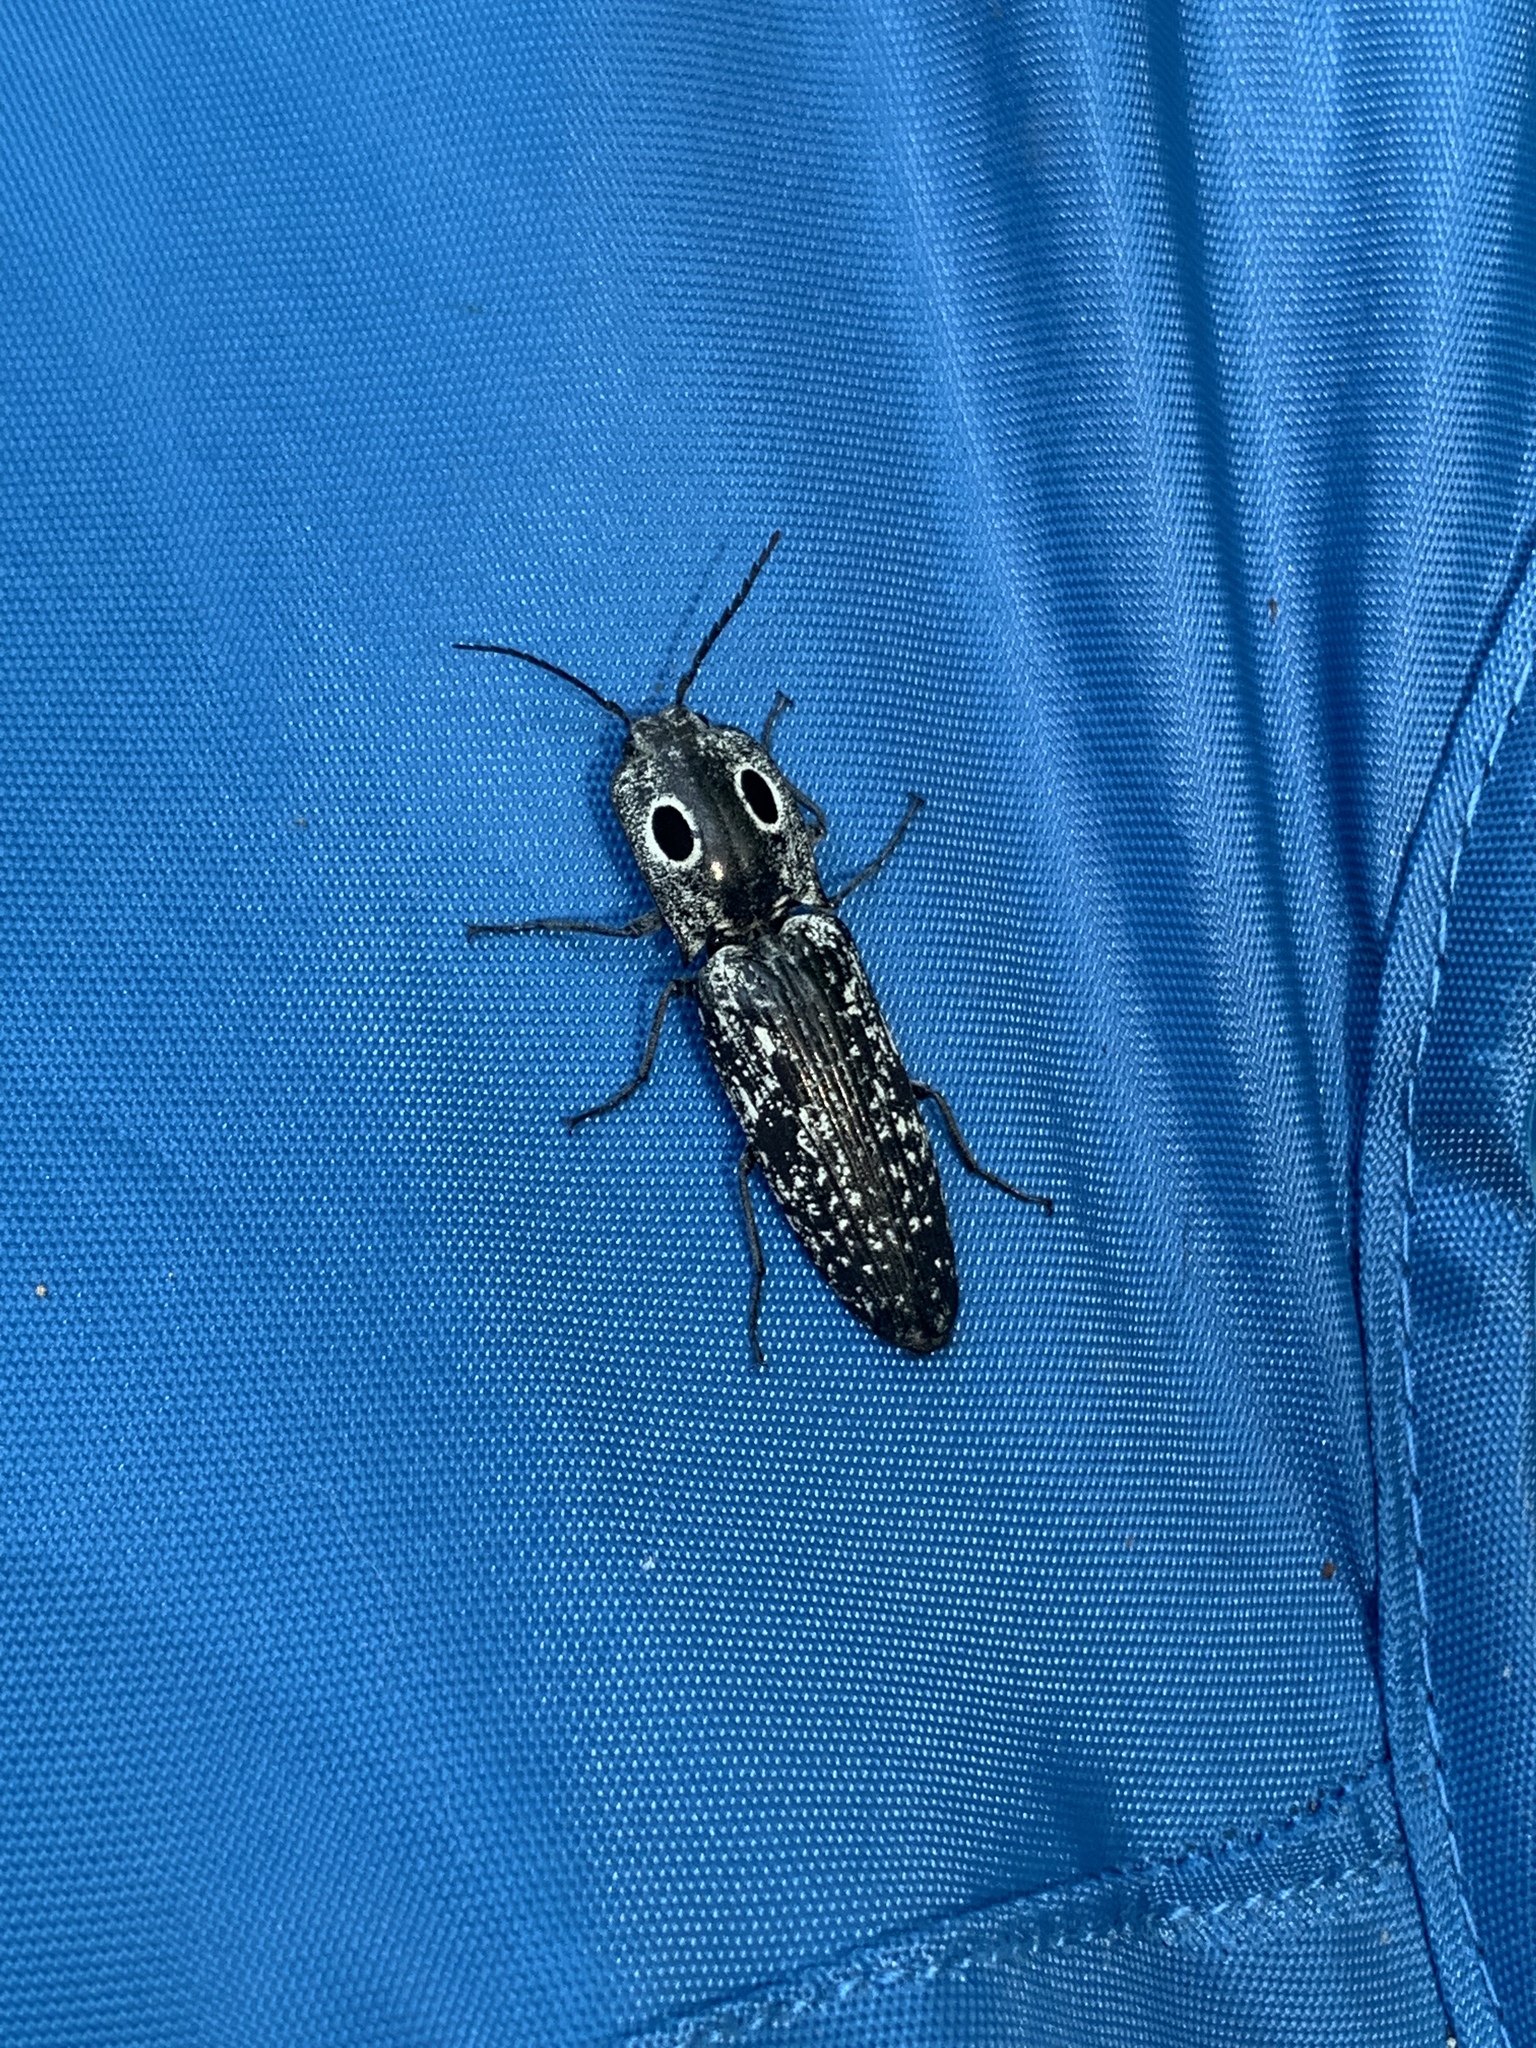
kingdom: Animalia
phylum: Arthropoda
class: Insecta
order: Coleoptera
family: Elateridae
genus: Alaus
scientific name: Alaus oculatus
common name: Eastern eyed click beetle
